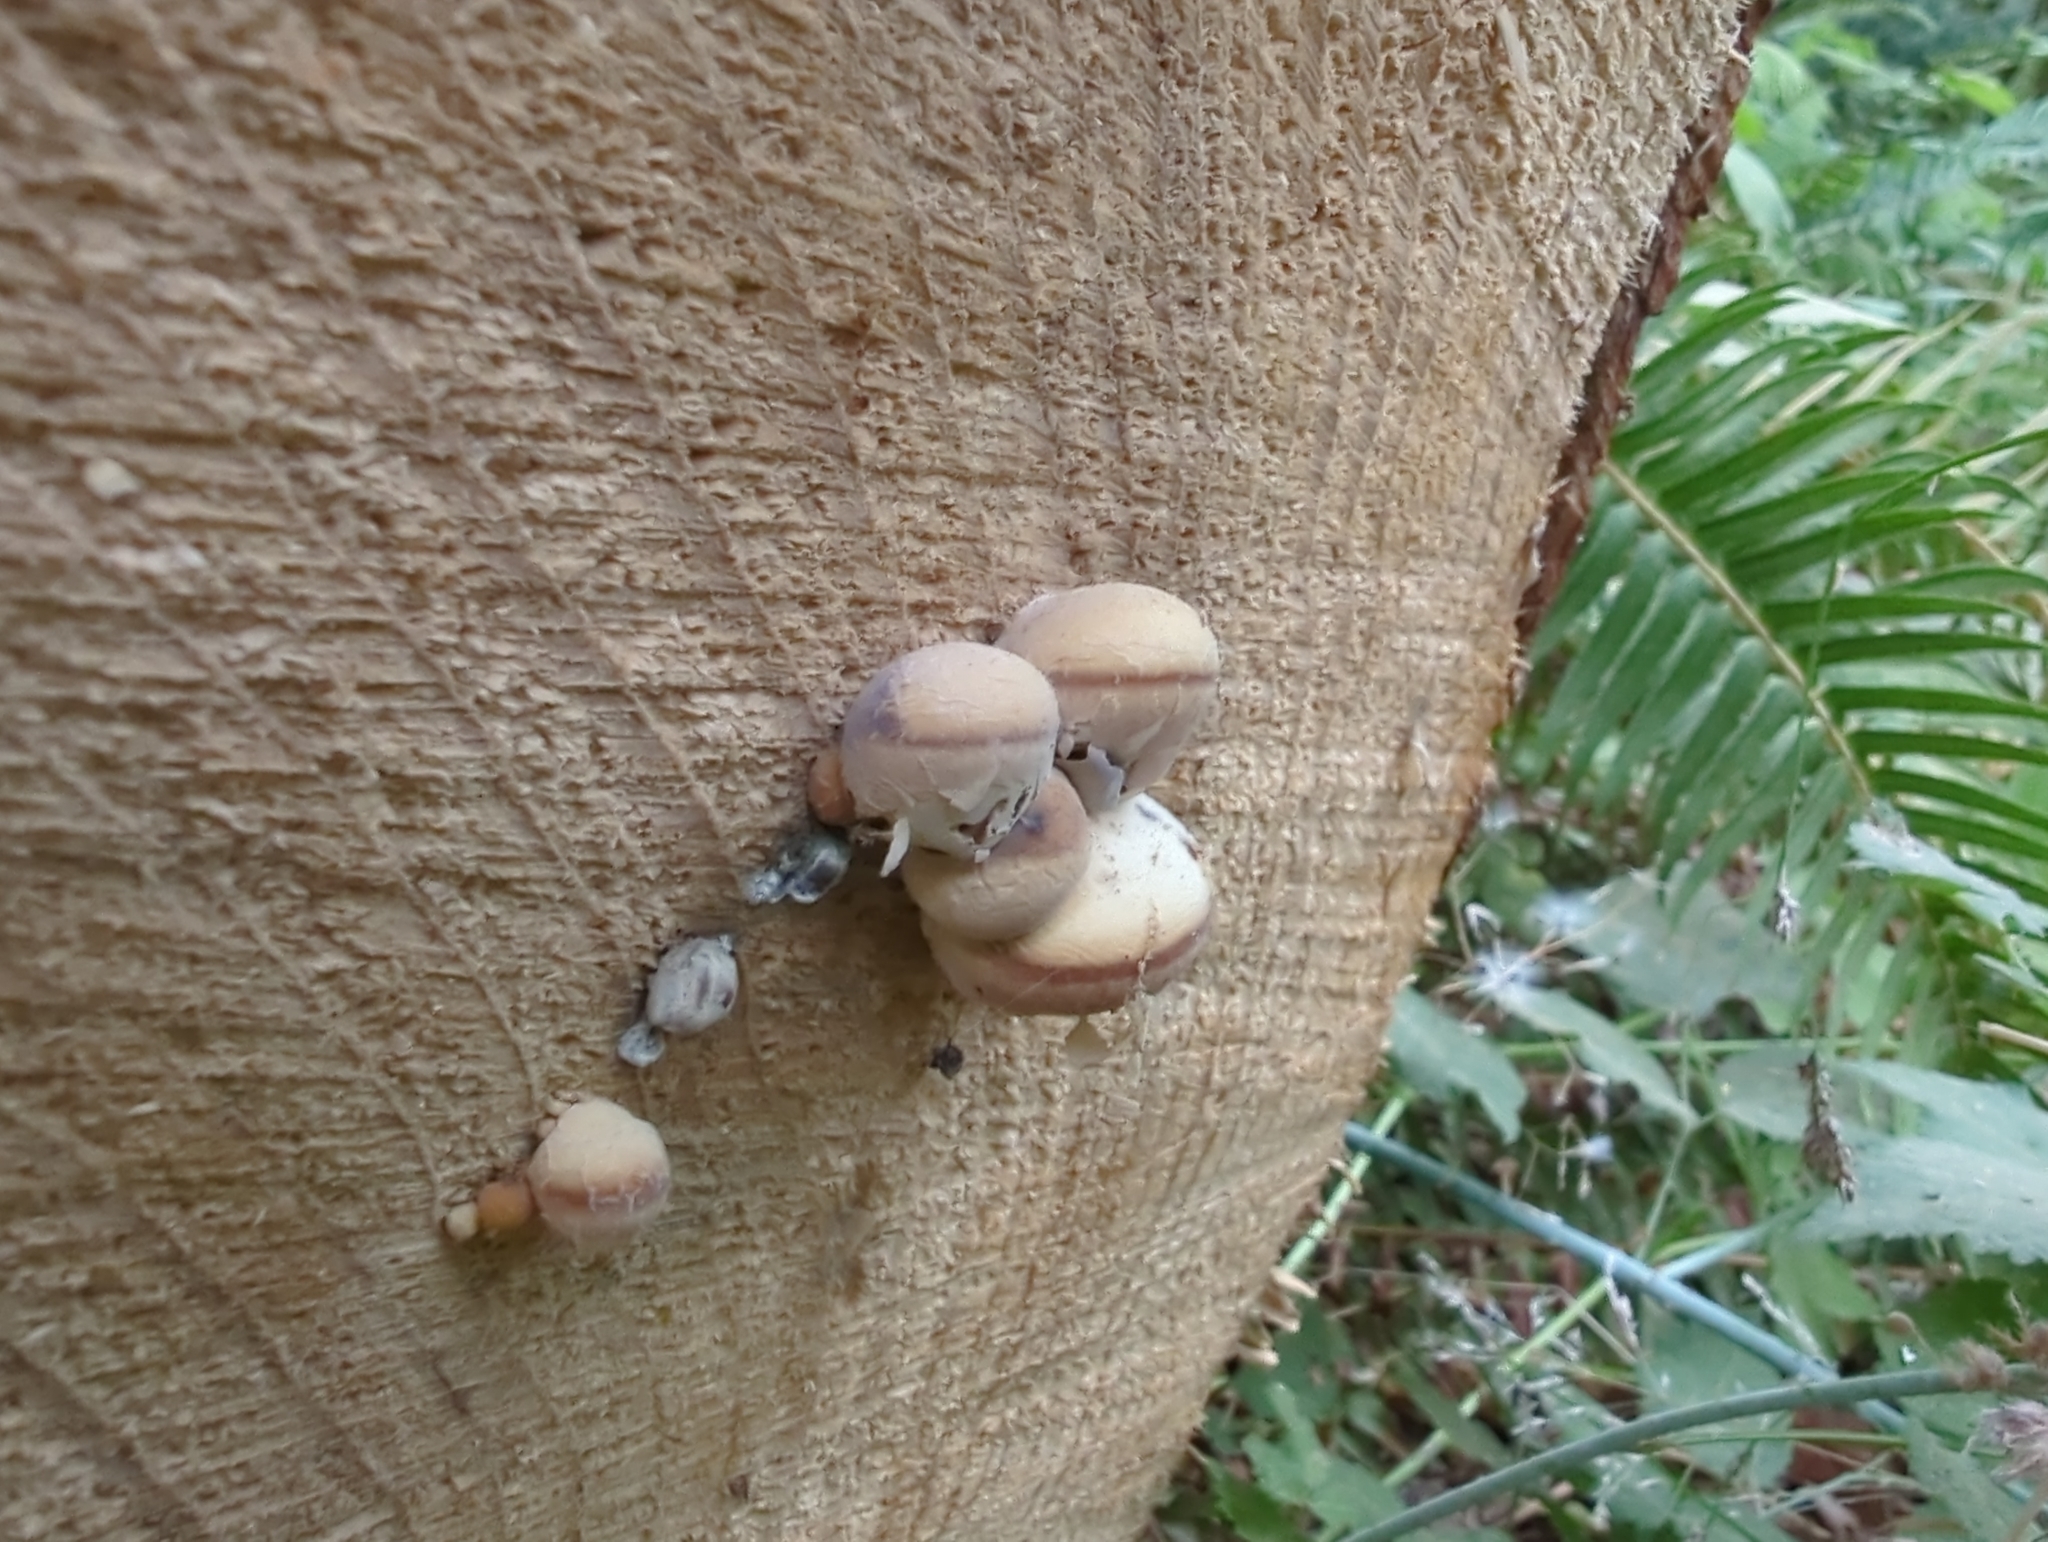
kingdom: Fungi
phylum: Basidiomycota
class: Agaricomycetes
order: Polyporales
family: Polyporaceae
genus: Cryptoporus
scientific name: Cryptoporus volvatus
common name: Veiled polypore
